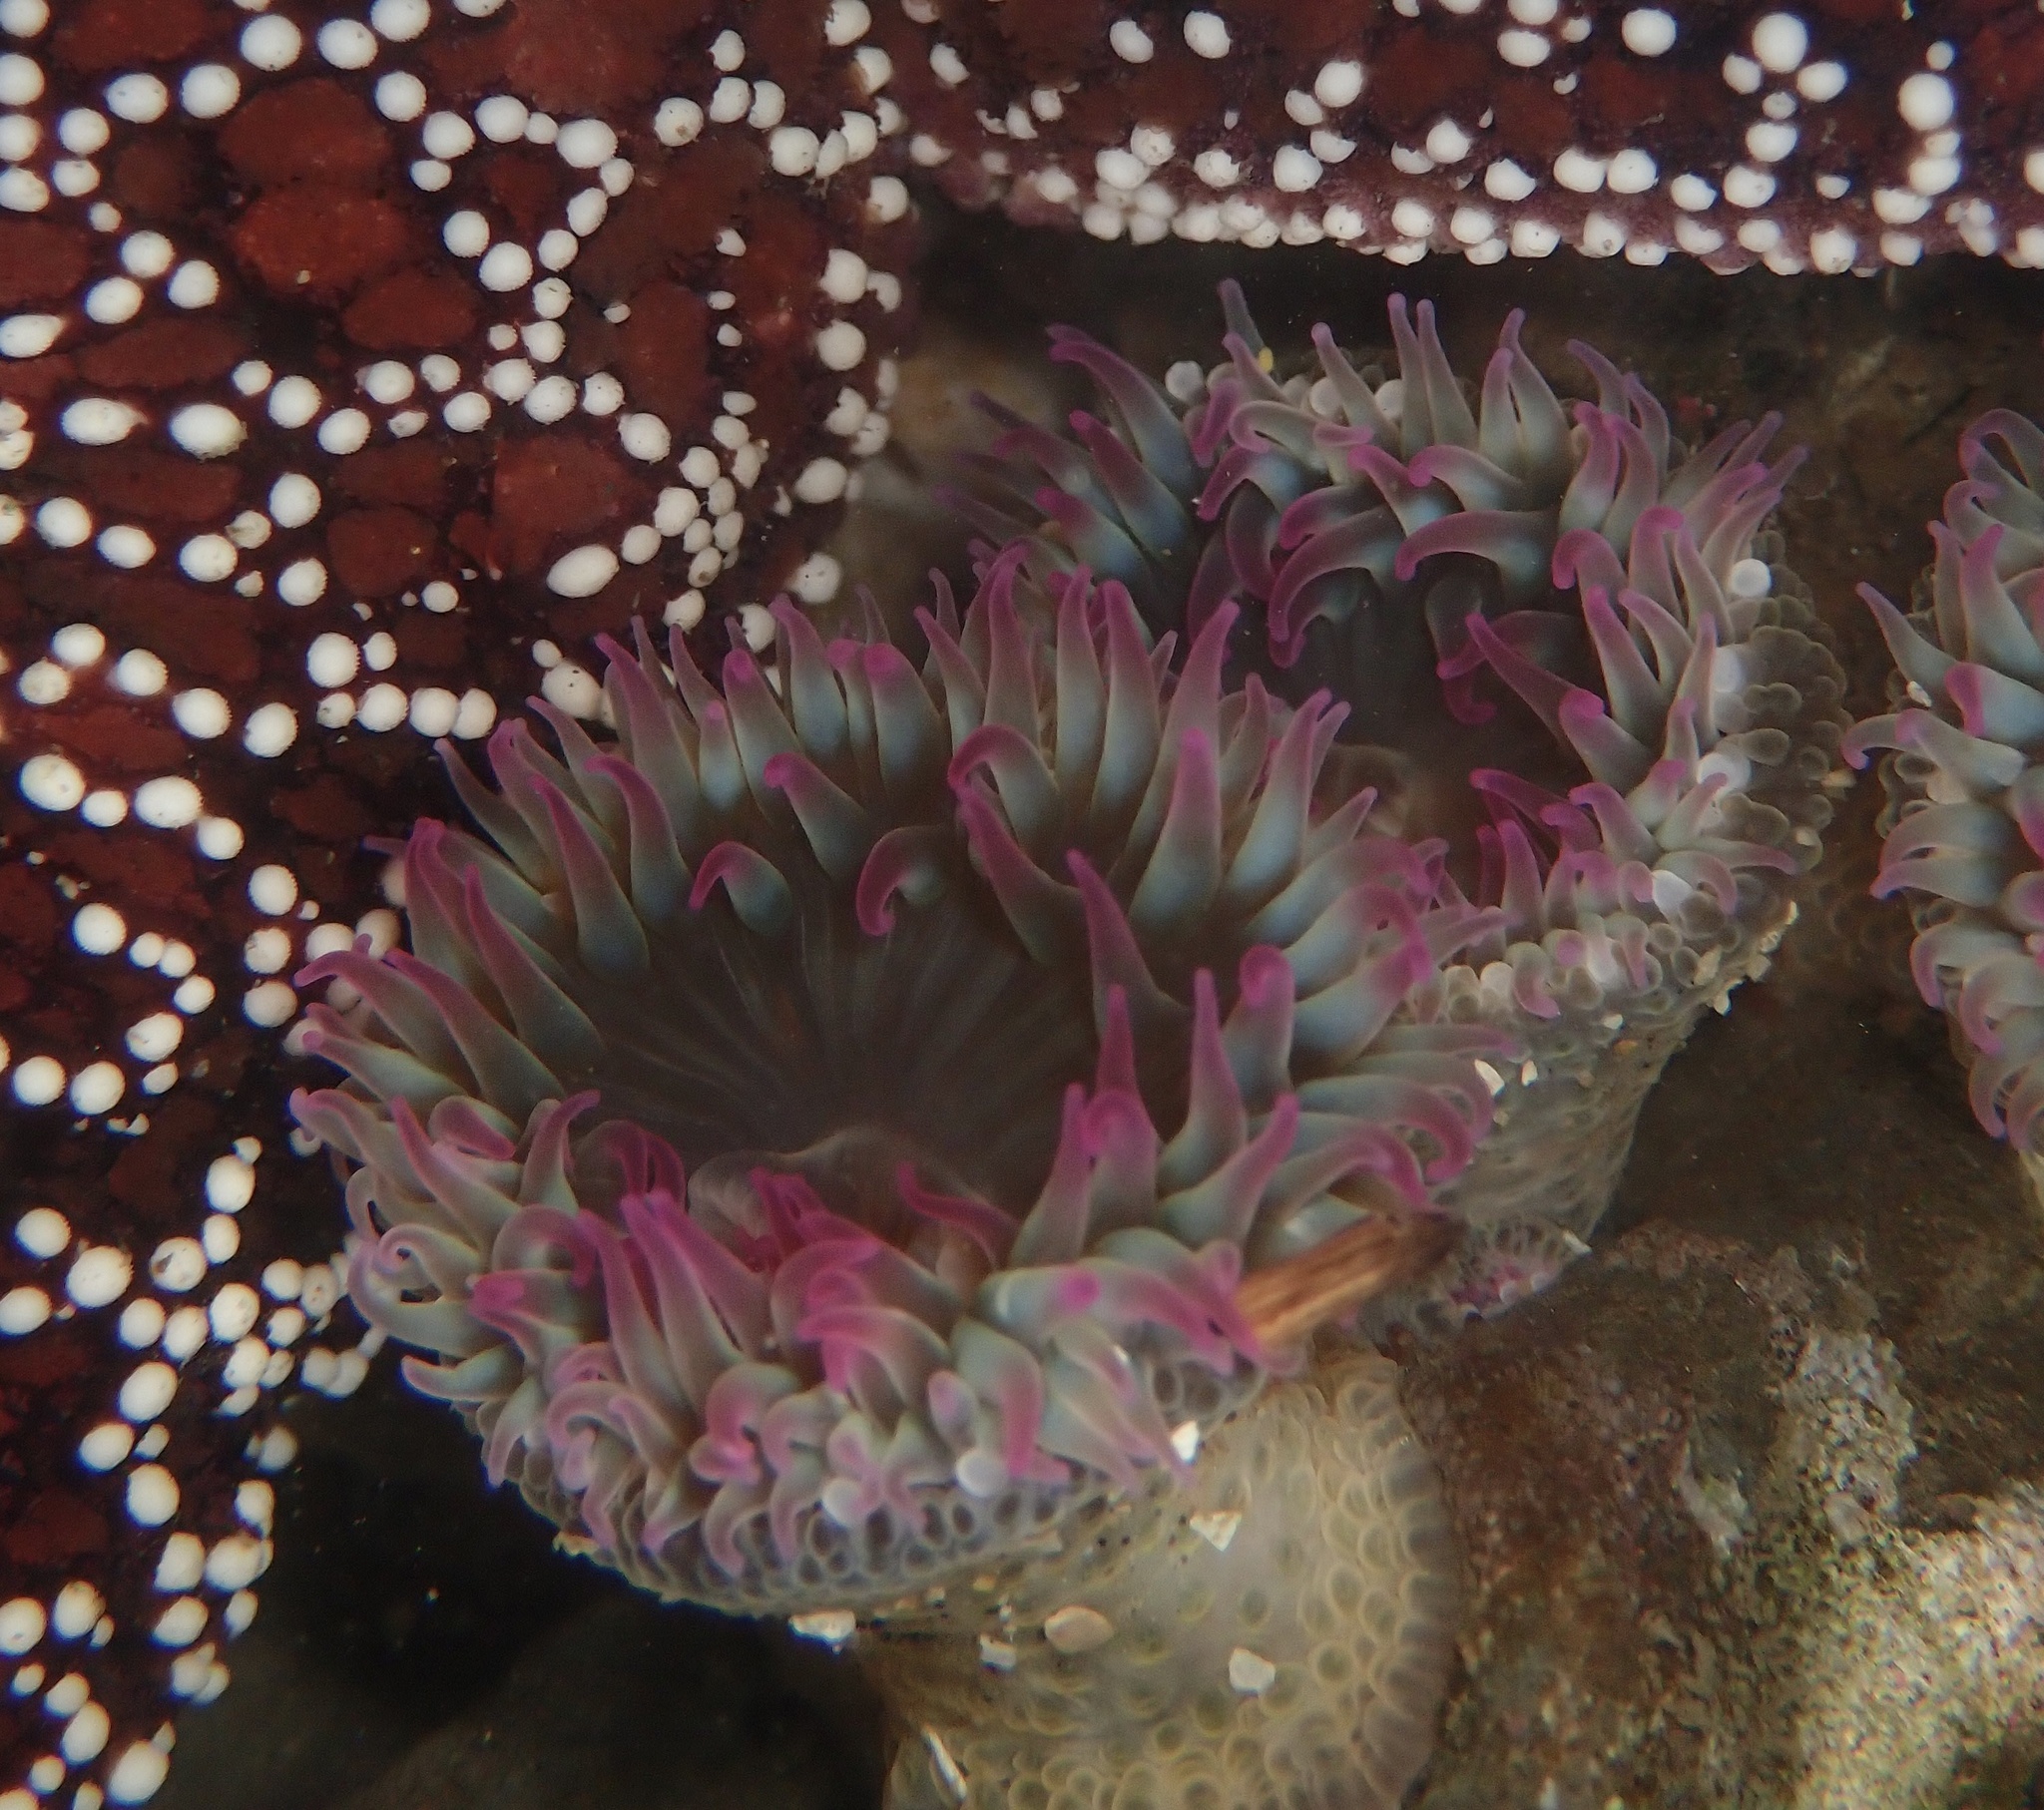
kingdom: Animalia
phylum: Cnidaria
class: Anthozoa
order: Actiniaria
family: Actiniidae
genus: Anthopleura
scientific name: Anthopleura elegantissima
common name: Clonal anemone
